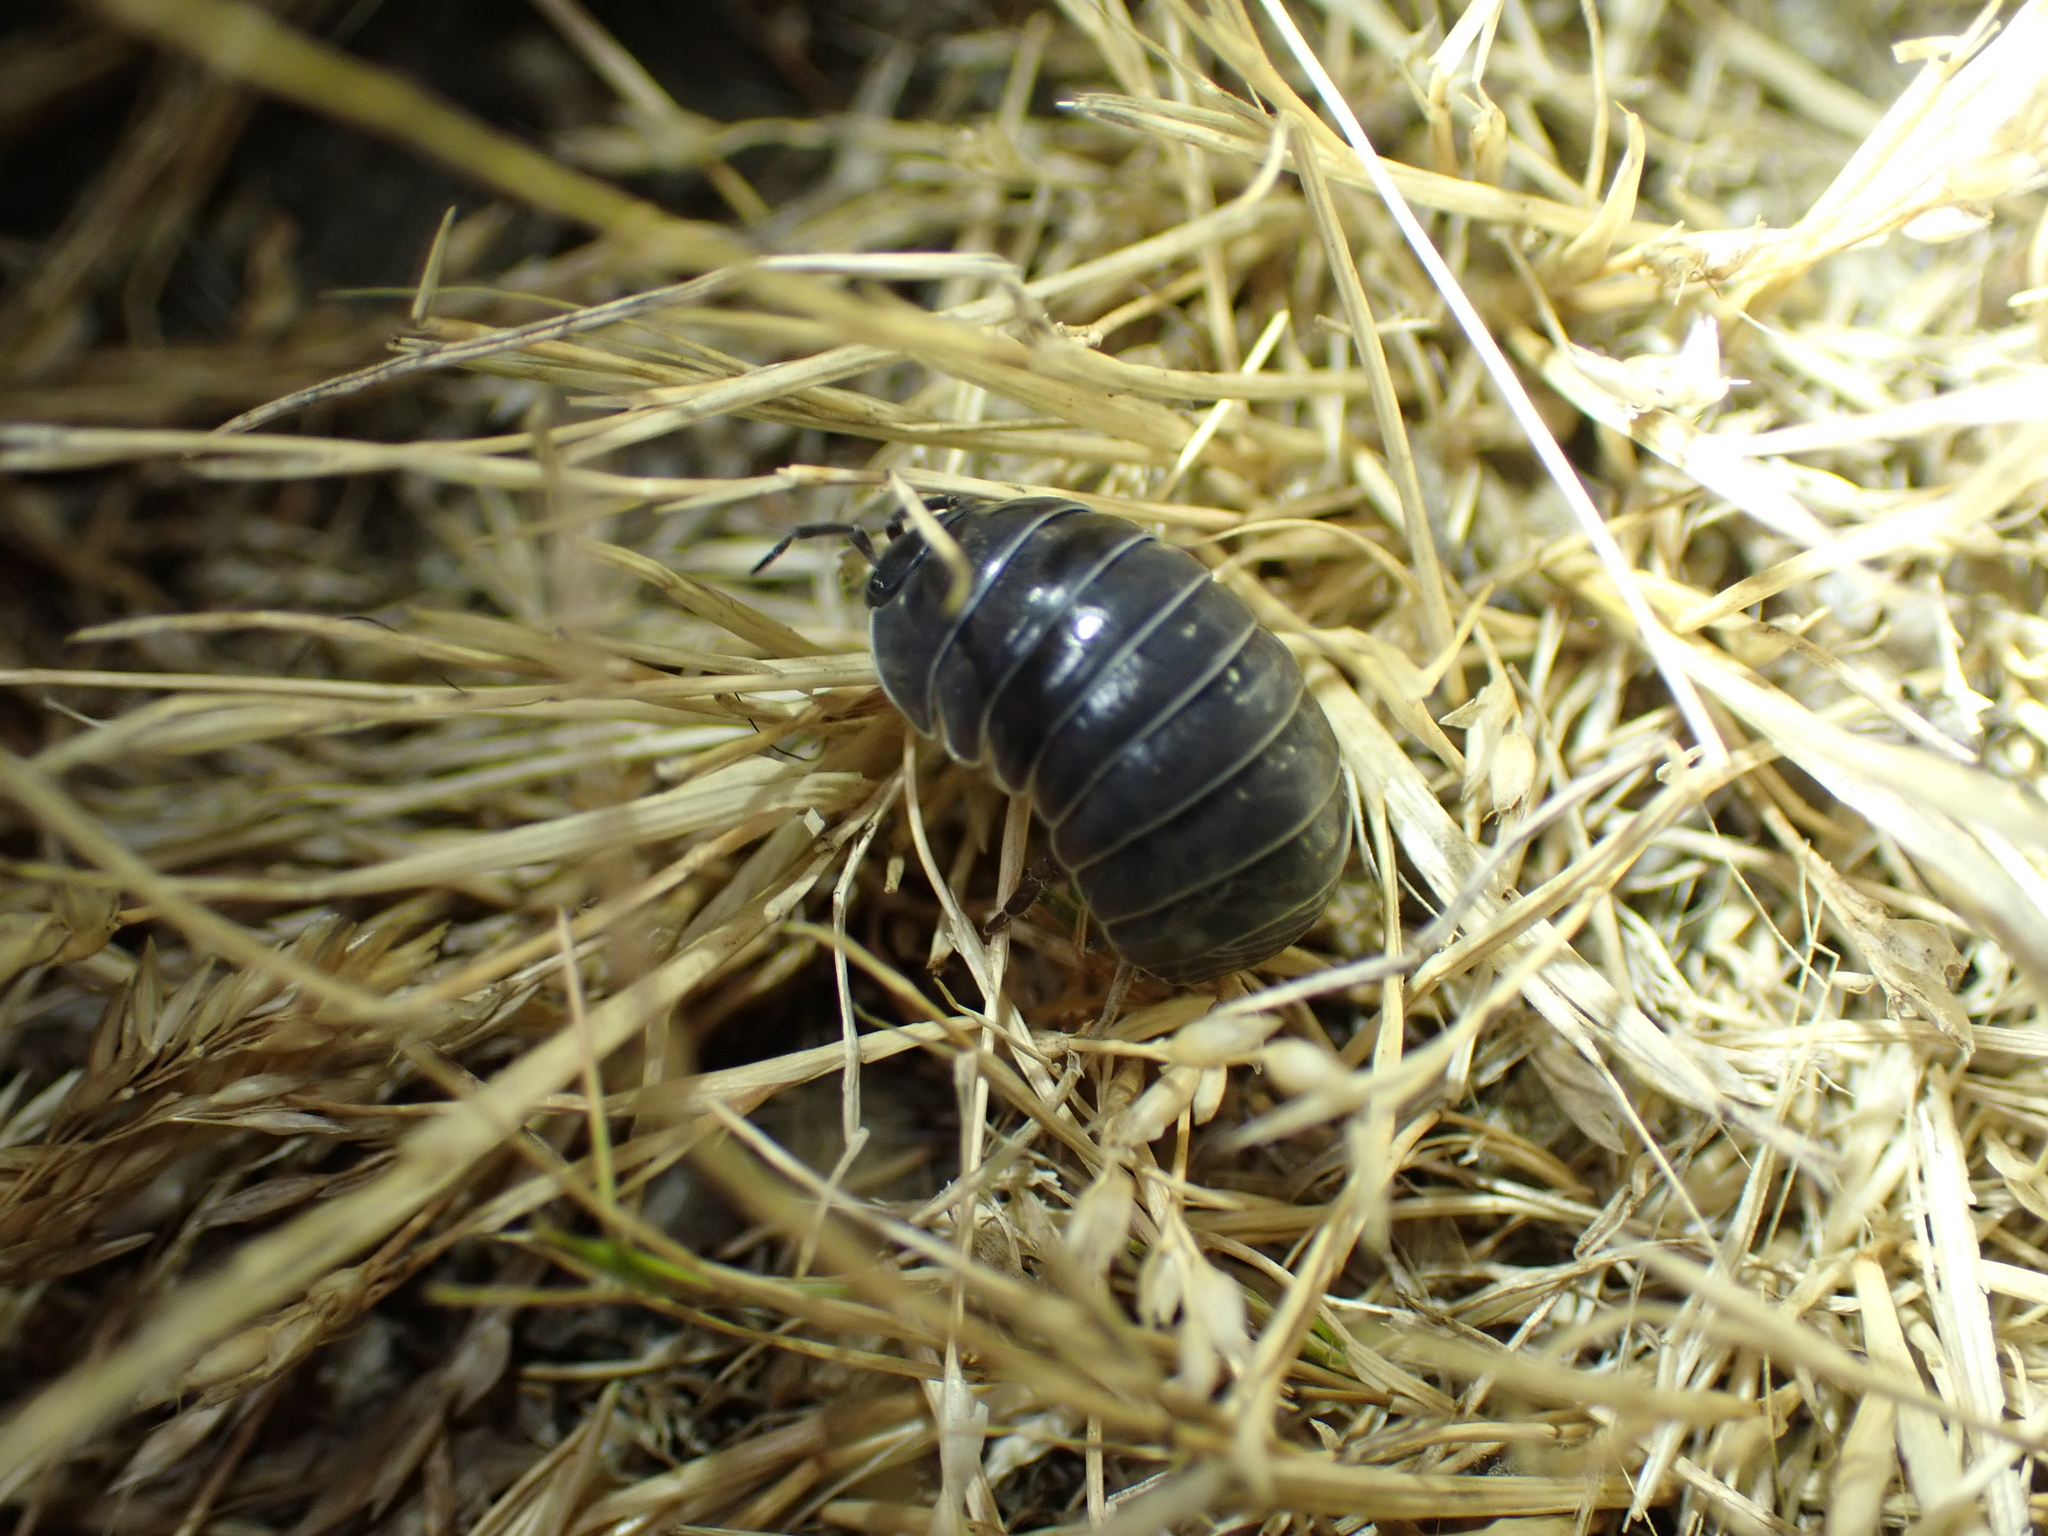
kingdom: Animalia
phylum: Arthropoda
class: Malacostraca
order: Isopoda
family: Armadillidiidae
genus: Armadillidium
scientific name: Armadillidium vulgare
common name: Common pill woodlouse
